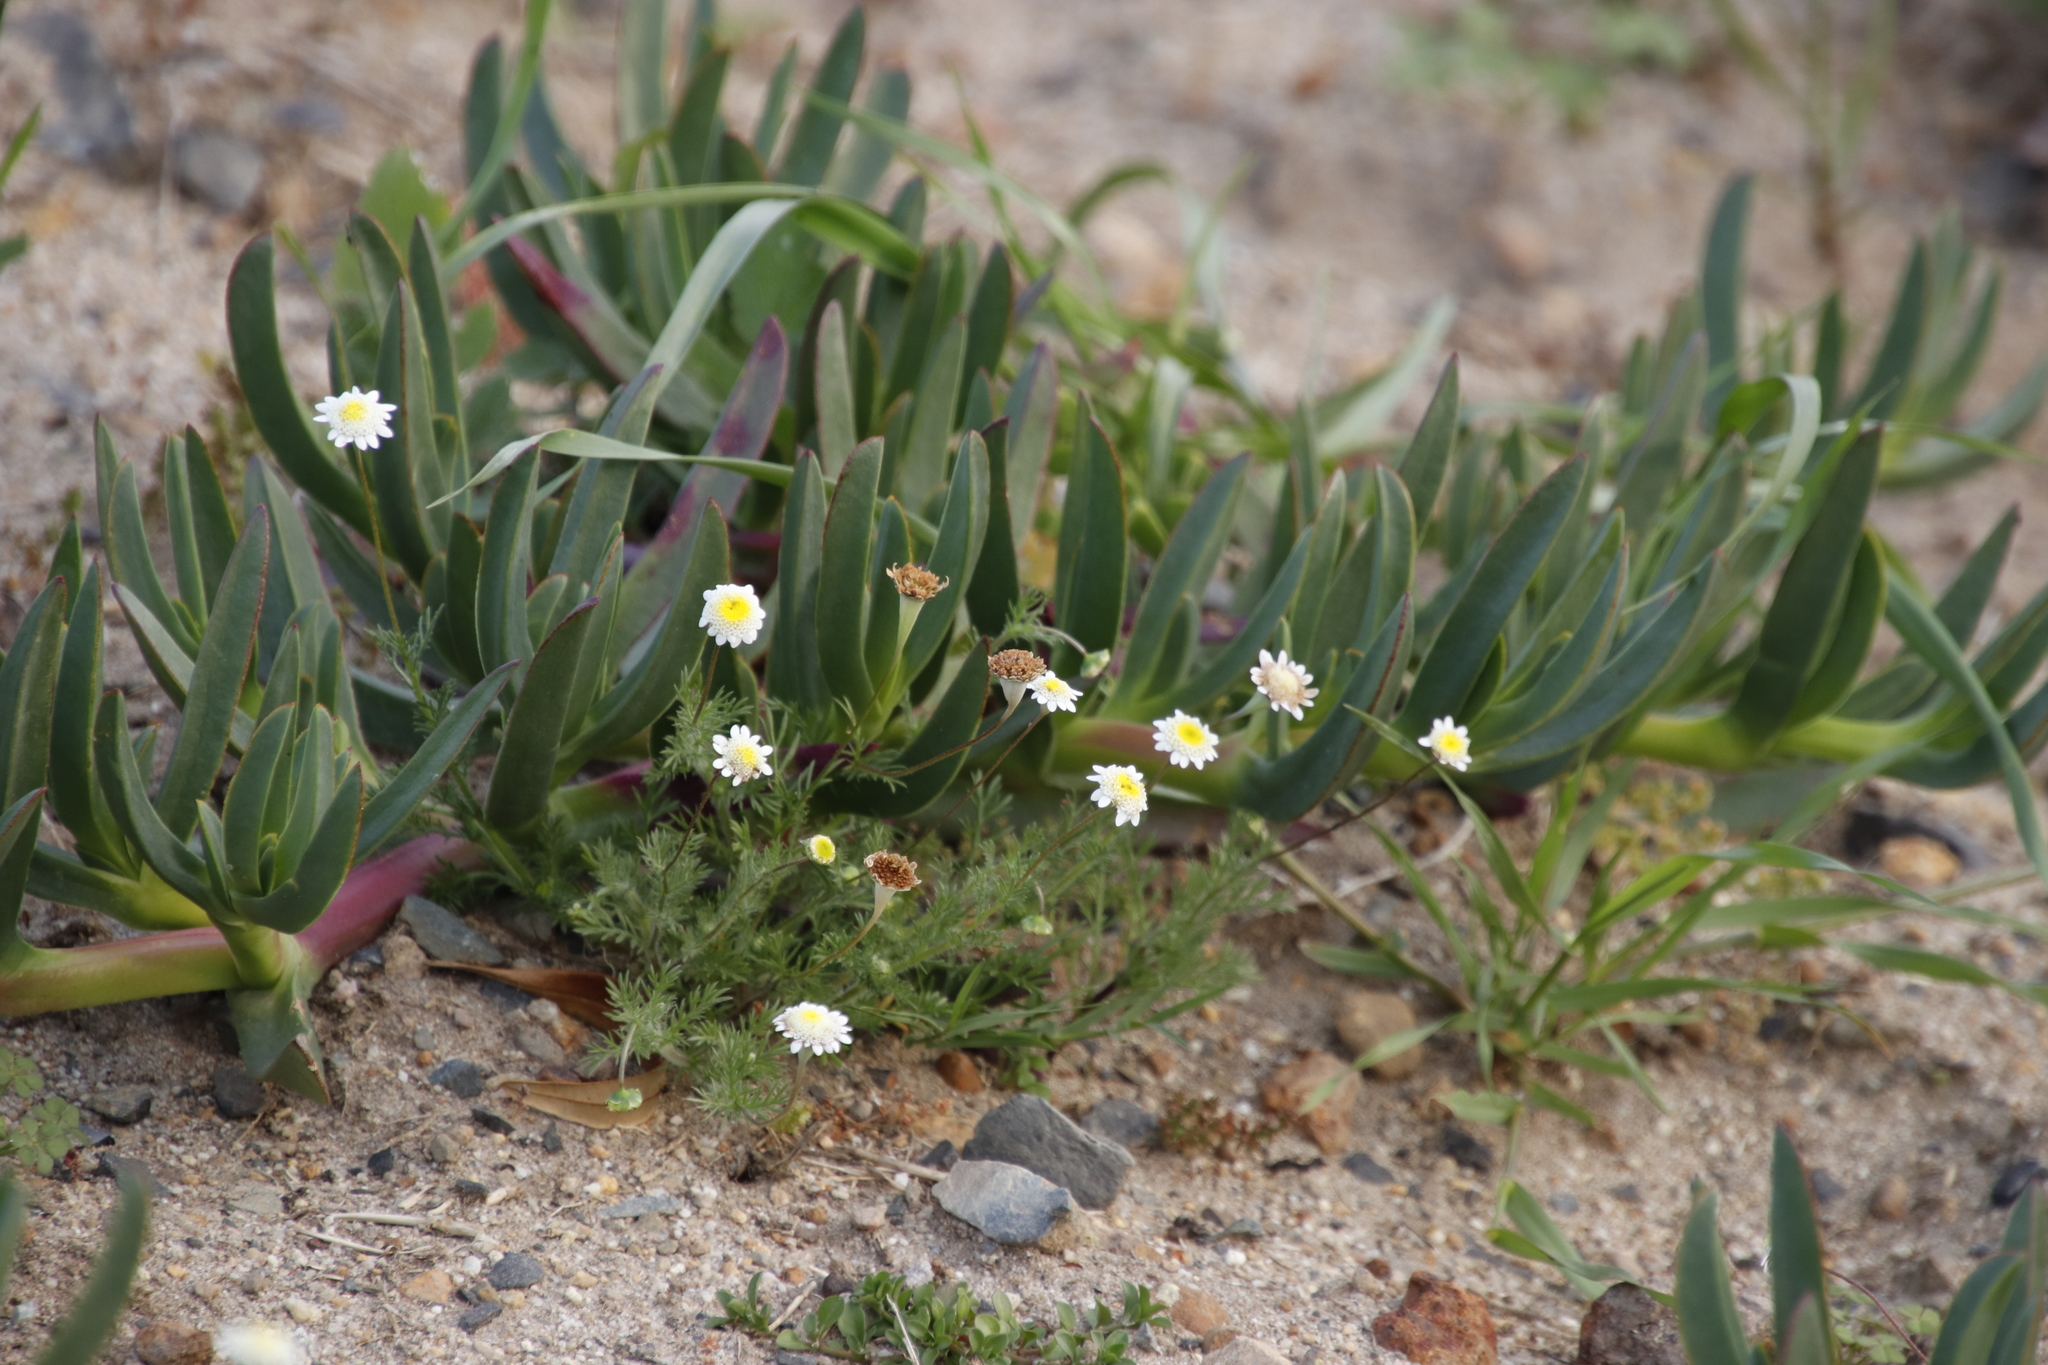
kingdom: Plantae
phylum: Tracheophyta
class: Magnoliopsida
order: Asterales
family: Asteraceae
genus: Cotula
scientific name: Cotula turbinata
